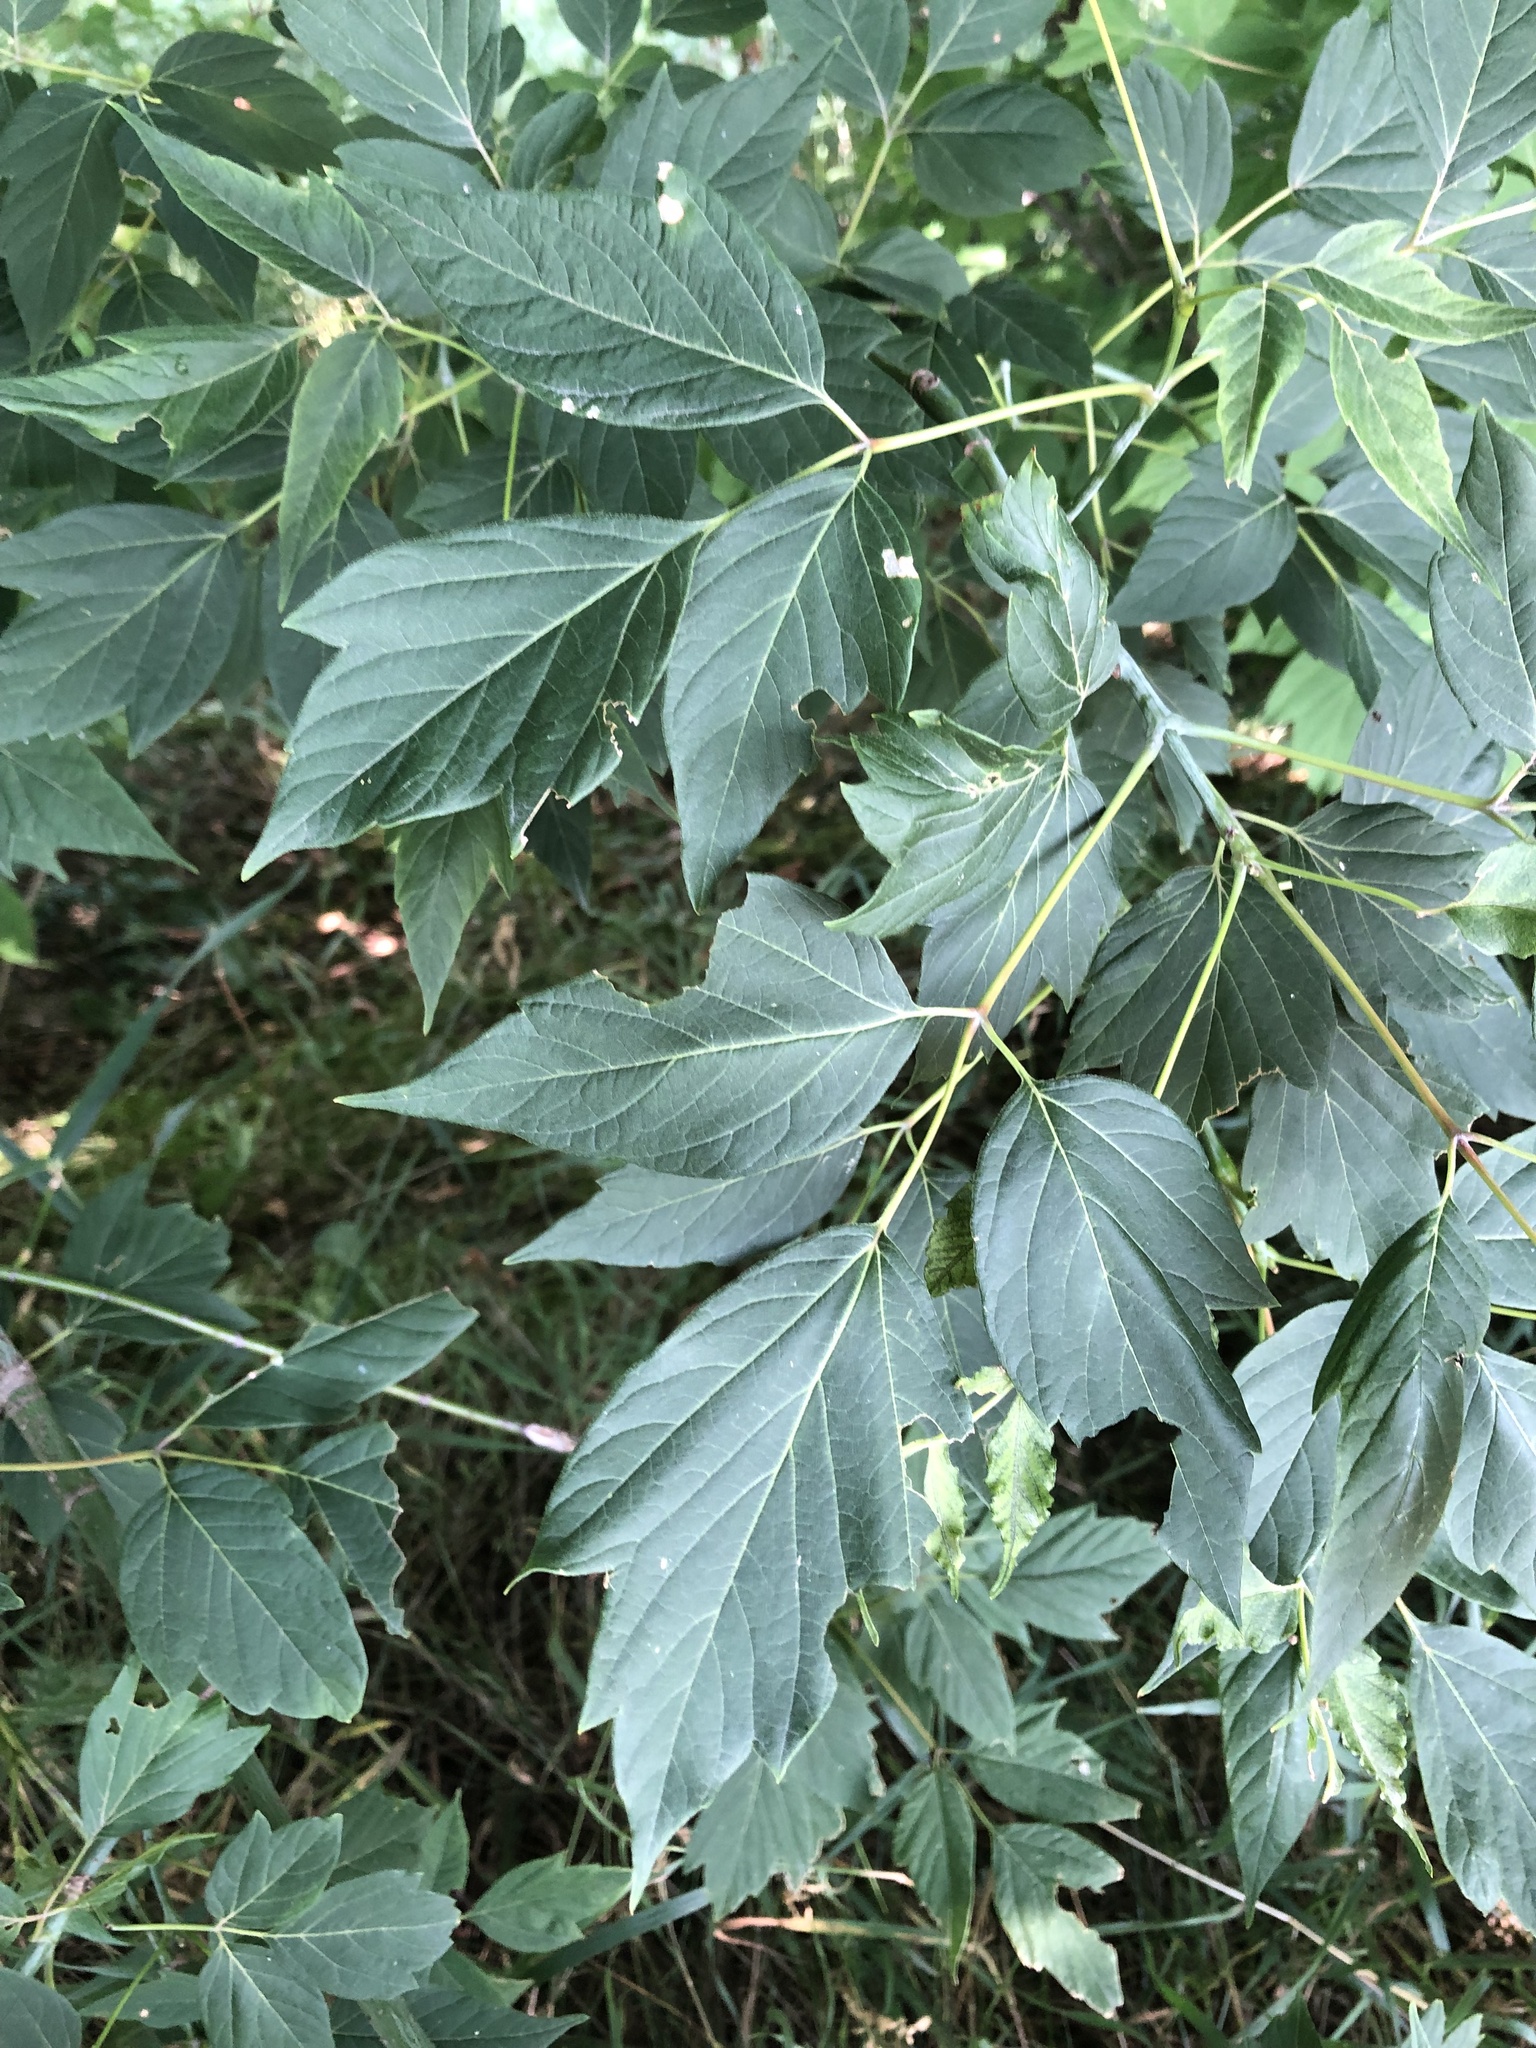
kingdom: Plantae
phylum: Tracheophyta
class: Magnoliopsida
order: Sapindales
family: Sapindaceae
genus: Acer
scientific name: Acer negundo
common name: Ashleaf maple
